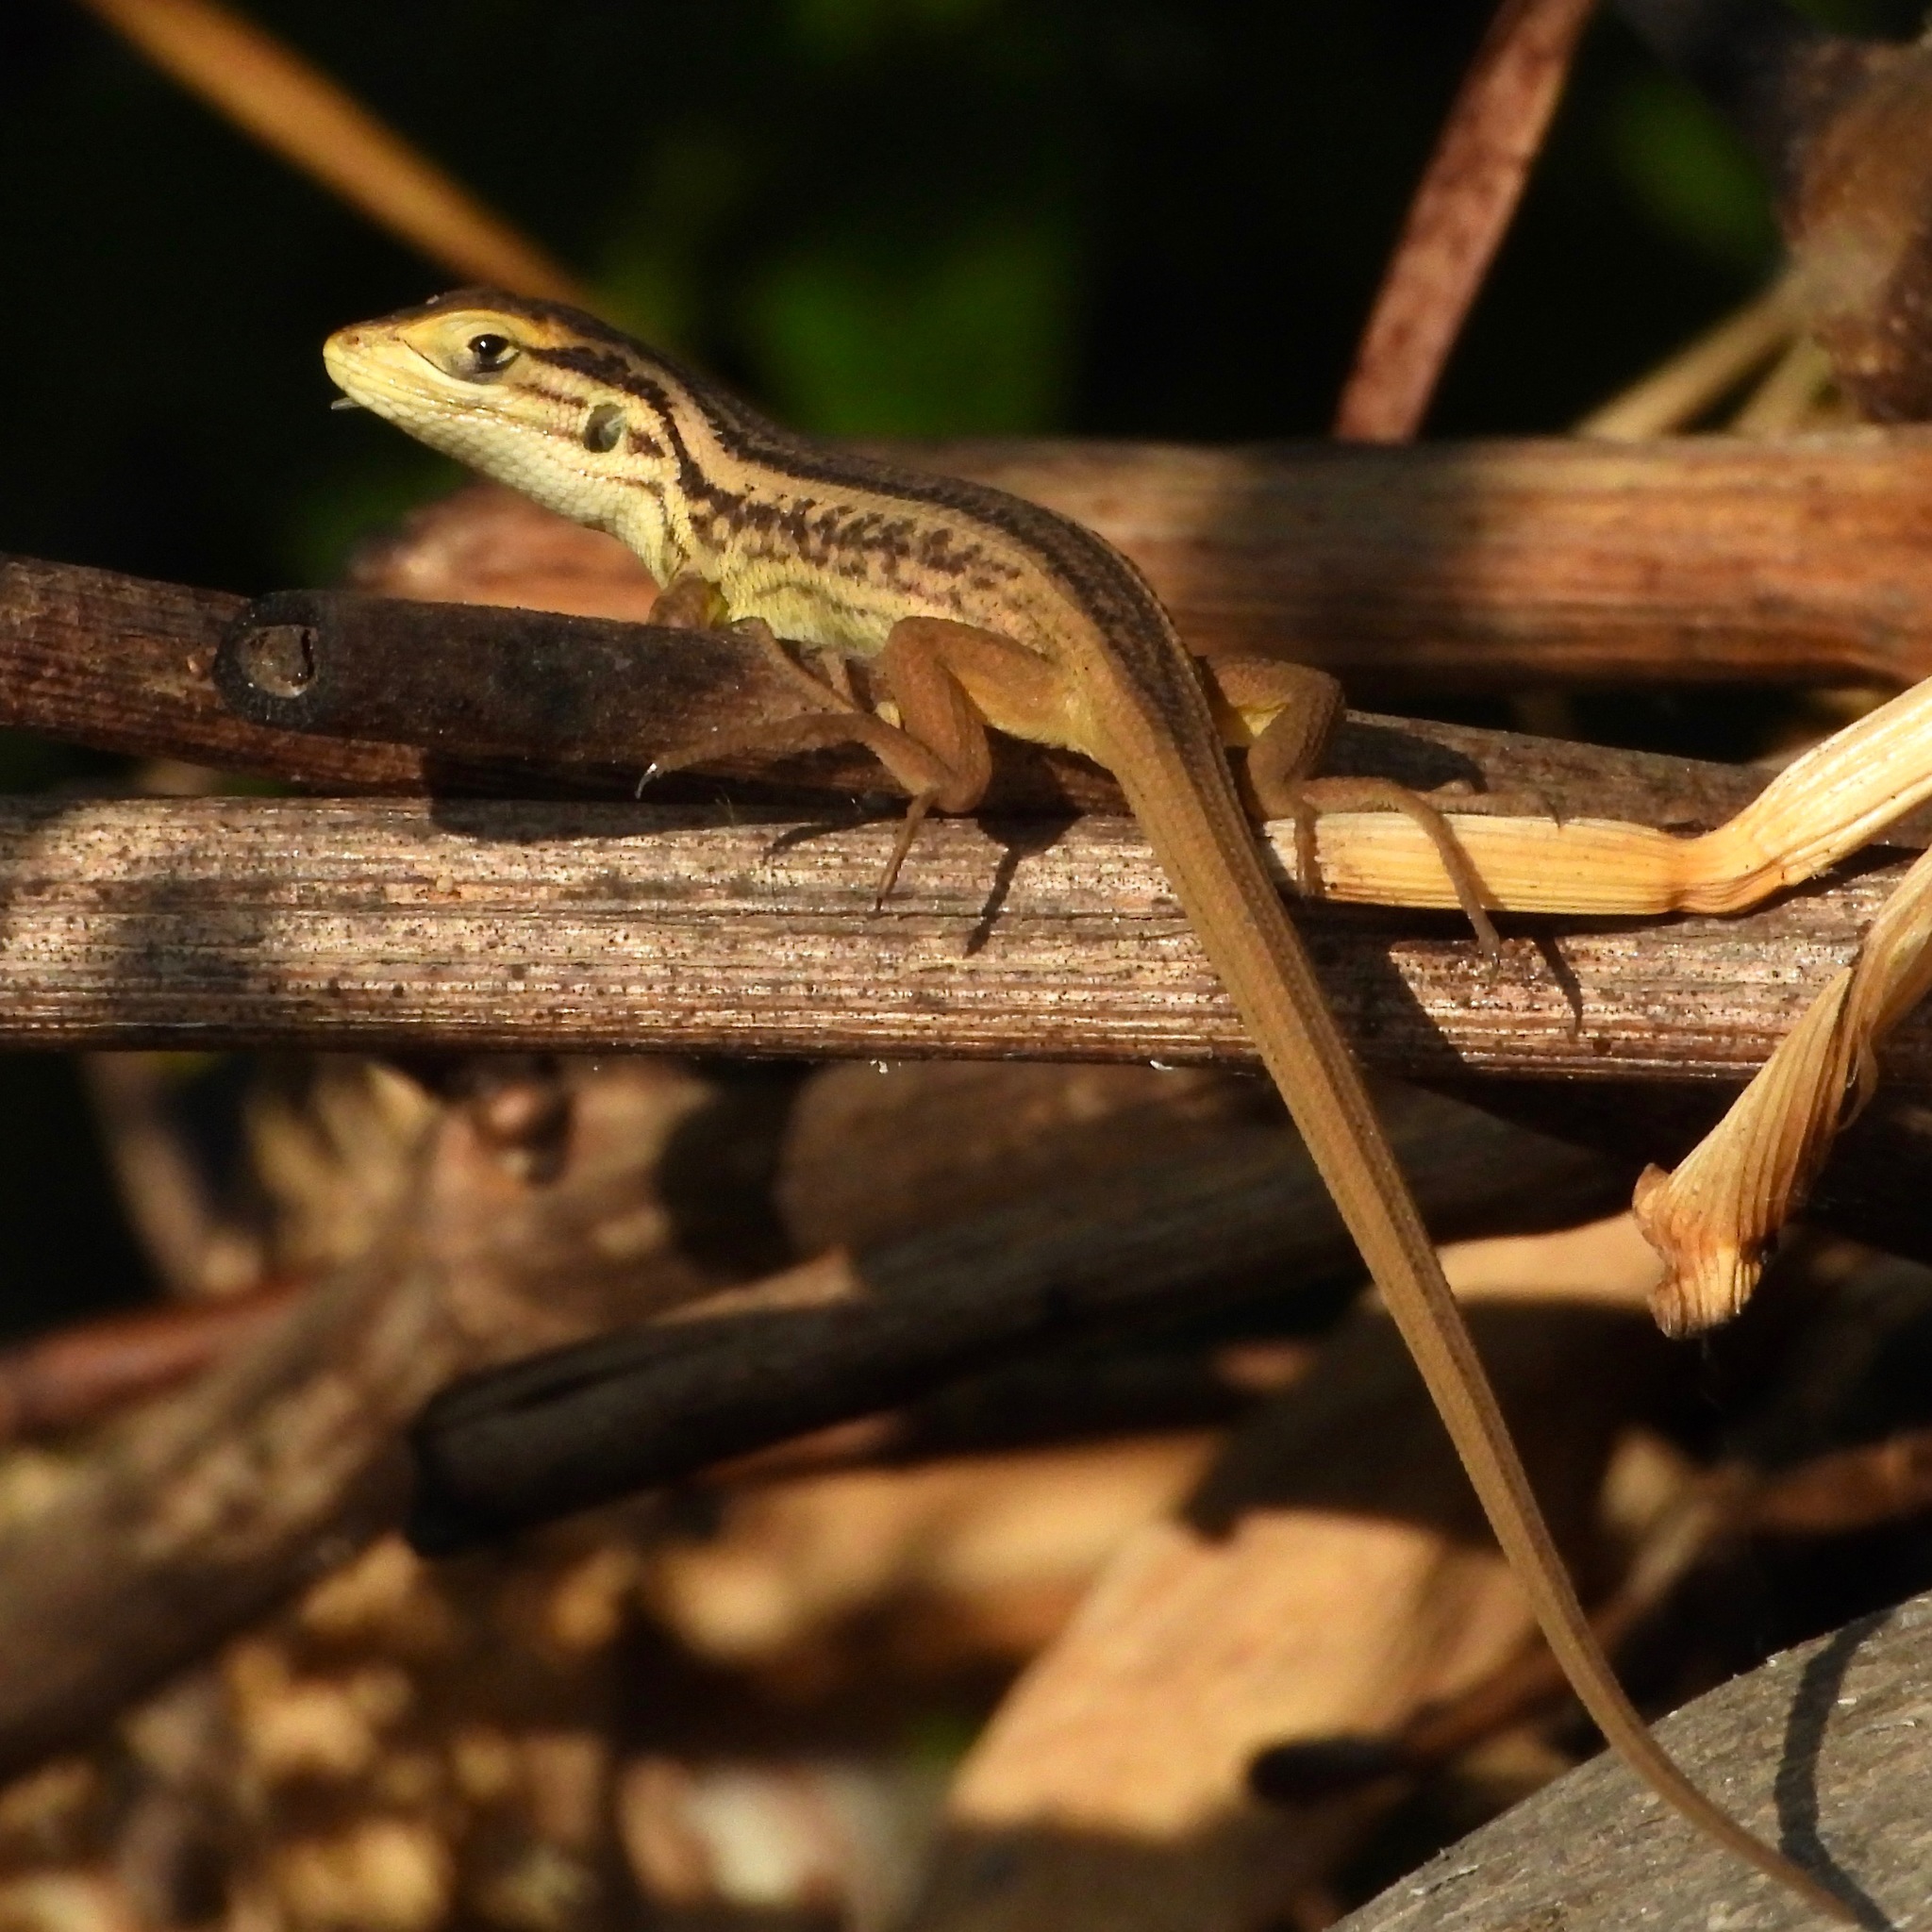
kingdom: Animalia
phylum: Chordata
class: Squamata
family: Liolaemidae
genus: Liolaemus
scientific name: Liolaemus chiliensis
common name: Chilean tree iguana
